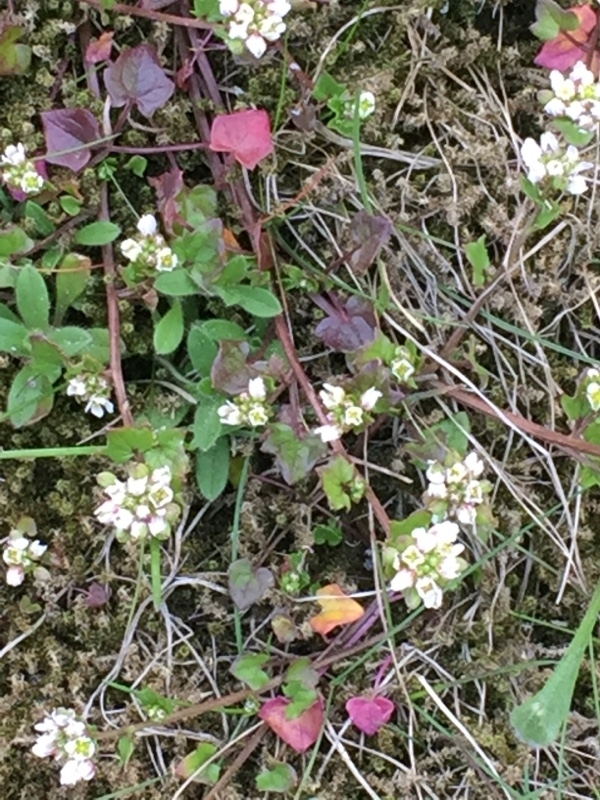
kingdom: Plantae
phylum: Tracheophyta
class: Magnoliopsida
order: Brassicales
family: Brassicaceae
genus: Cochlearia
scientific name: Cochlearia danica
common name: Early scurvygrass
